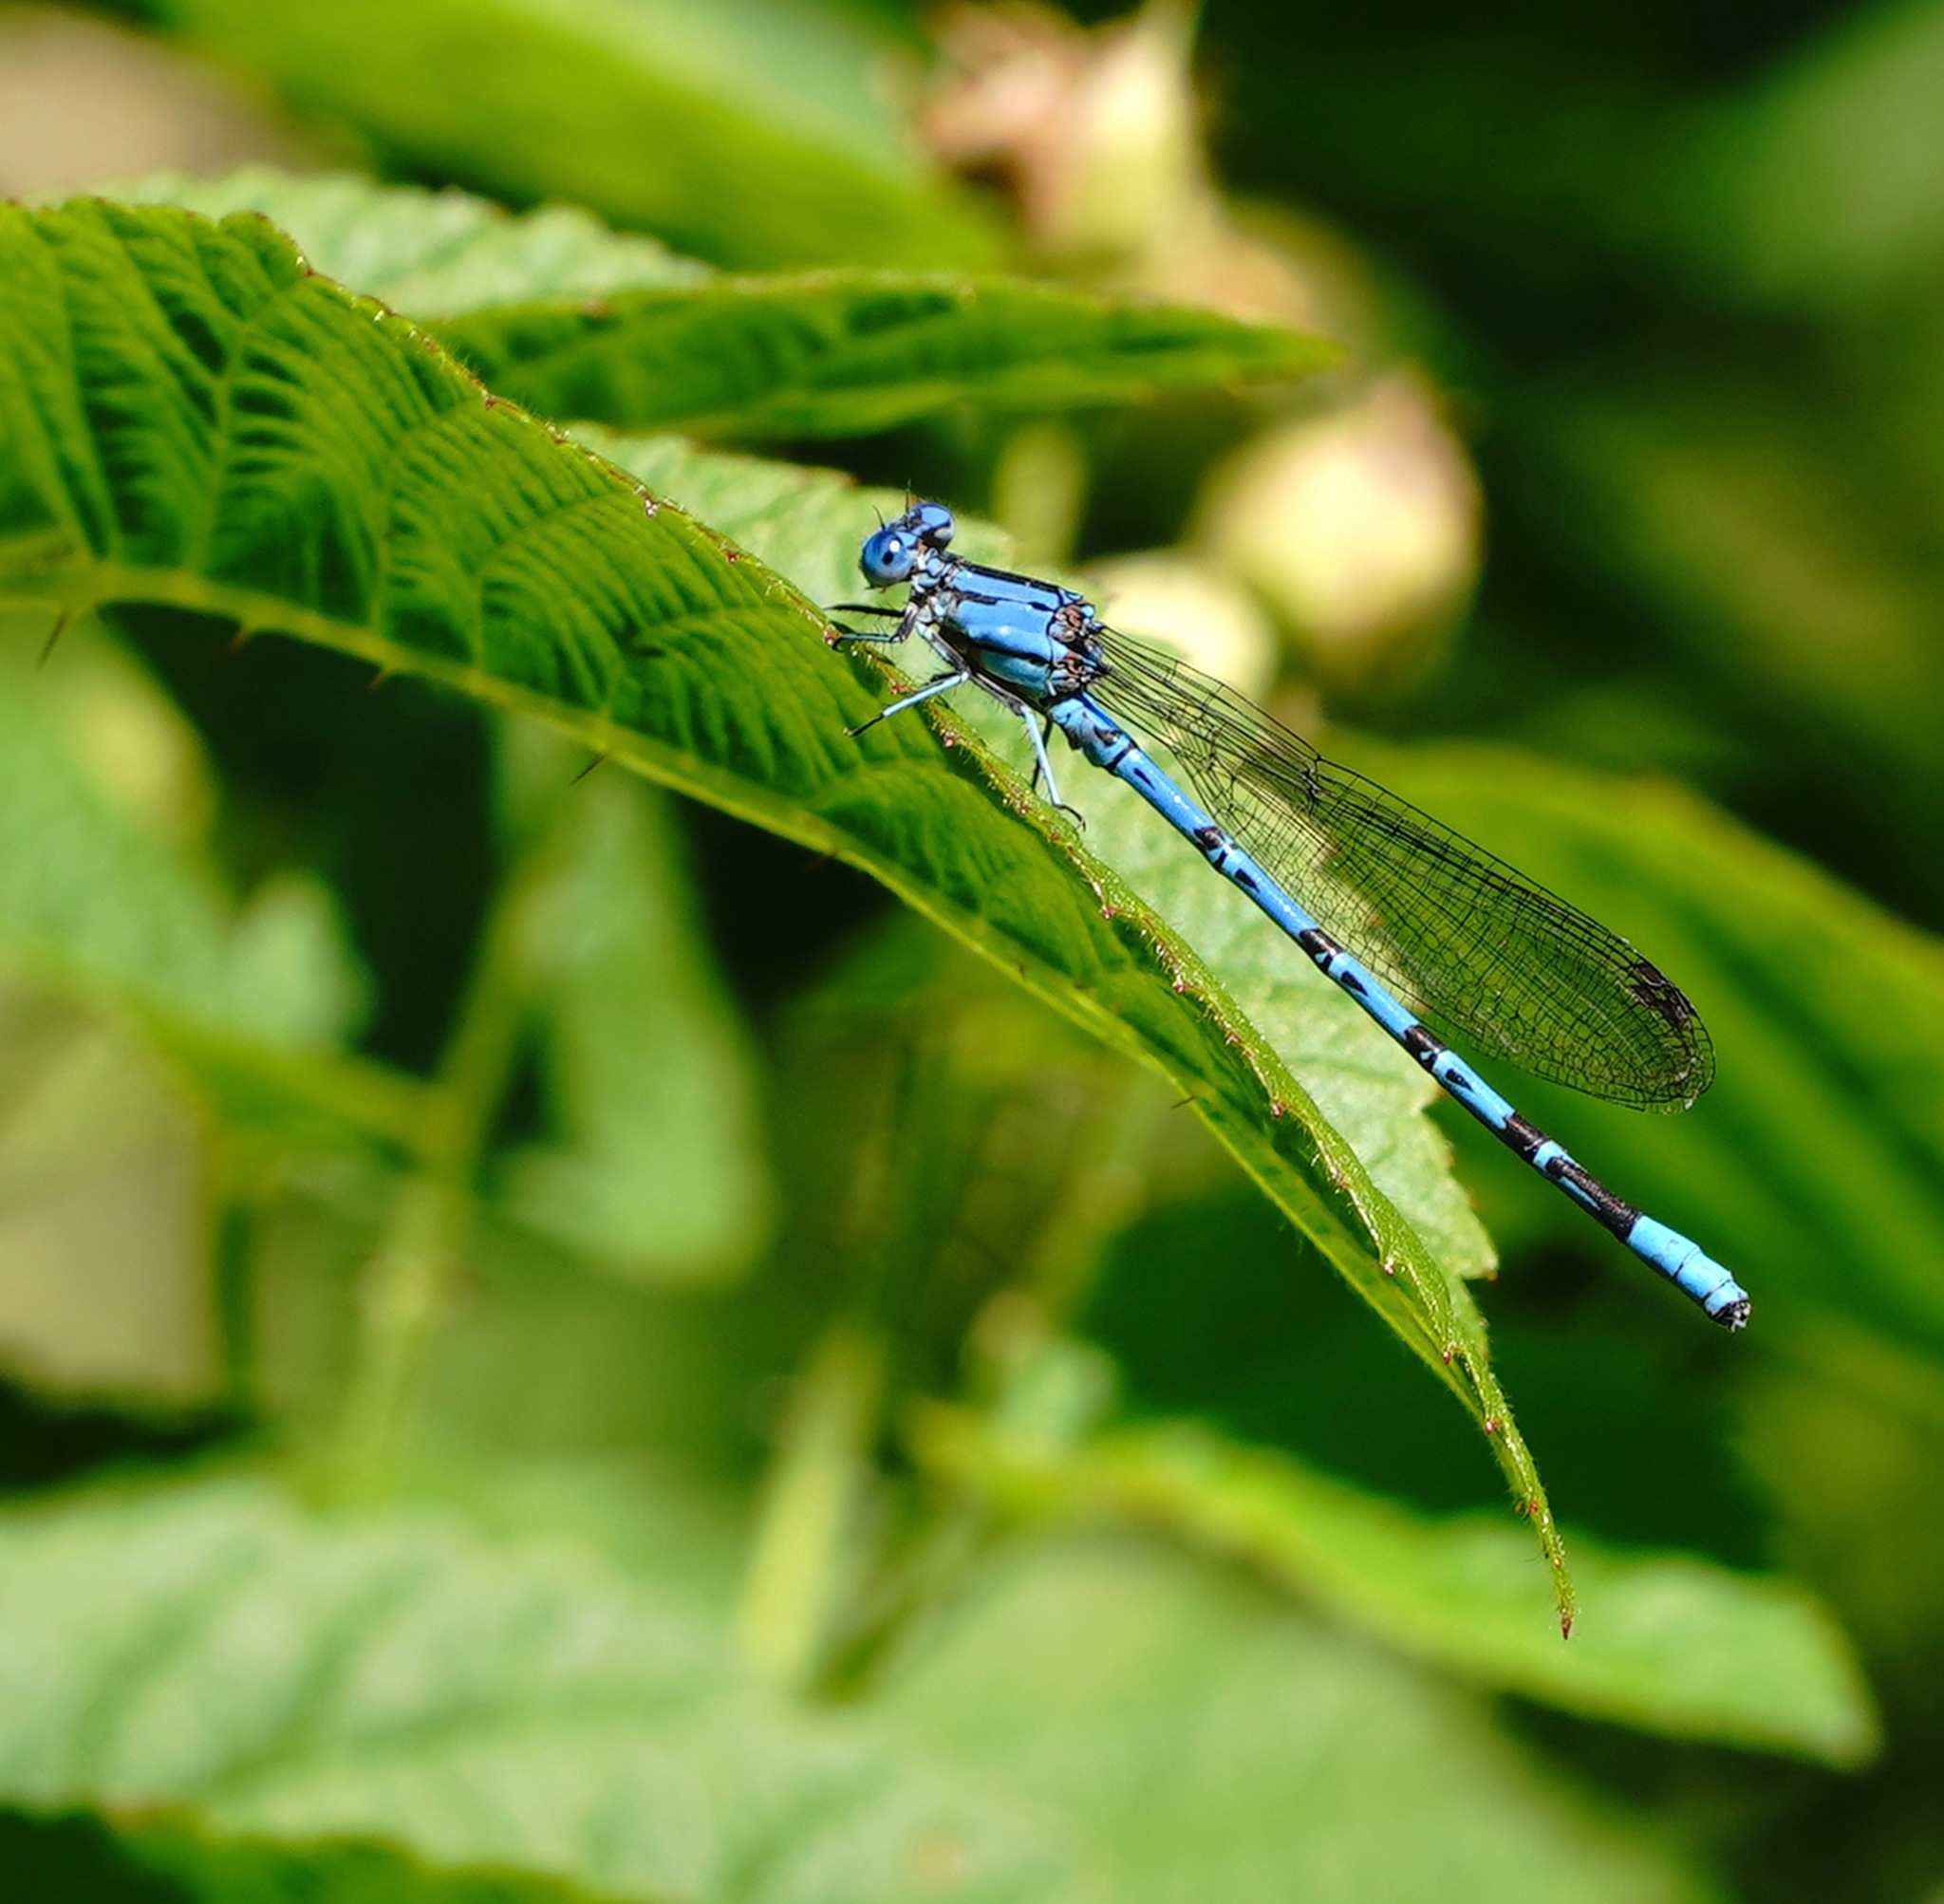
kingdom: Animalia
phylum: Arthropoda
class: Insecta
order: Odonata
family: Coenagrionidae
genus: Argia
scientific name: Argia vivida
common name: Vivid dancer
